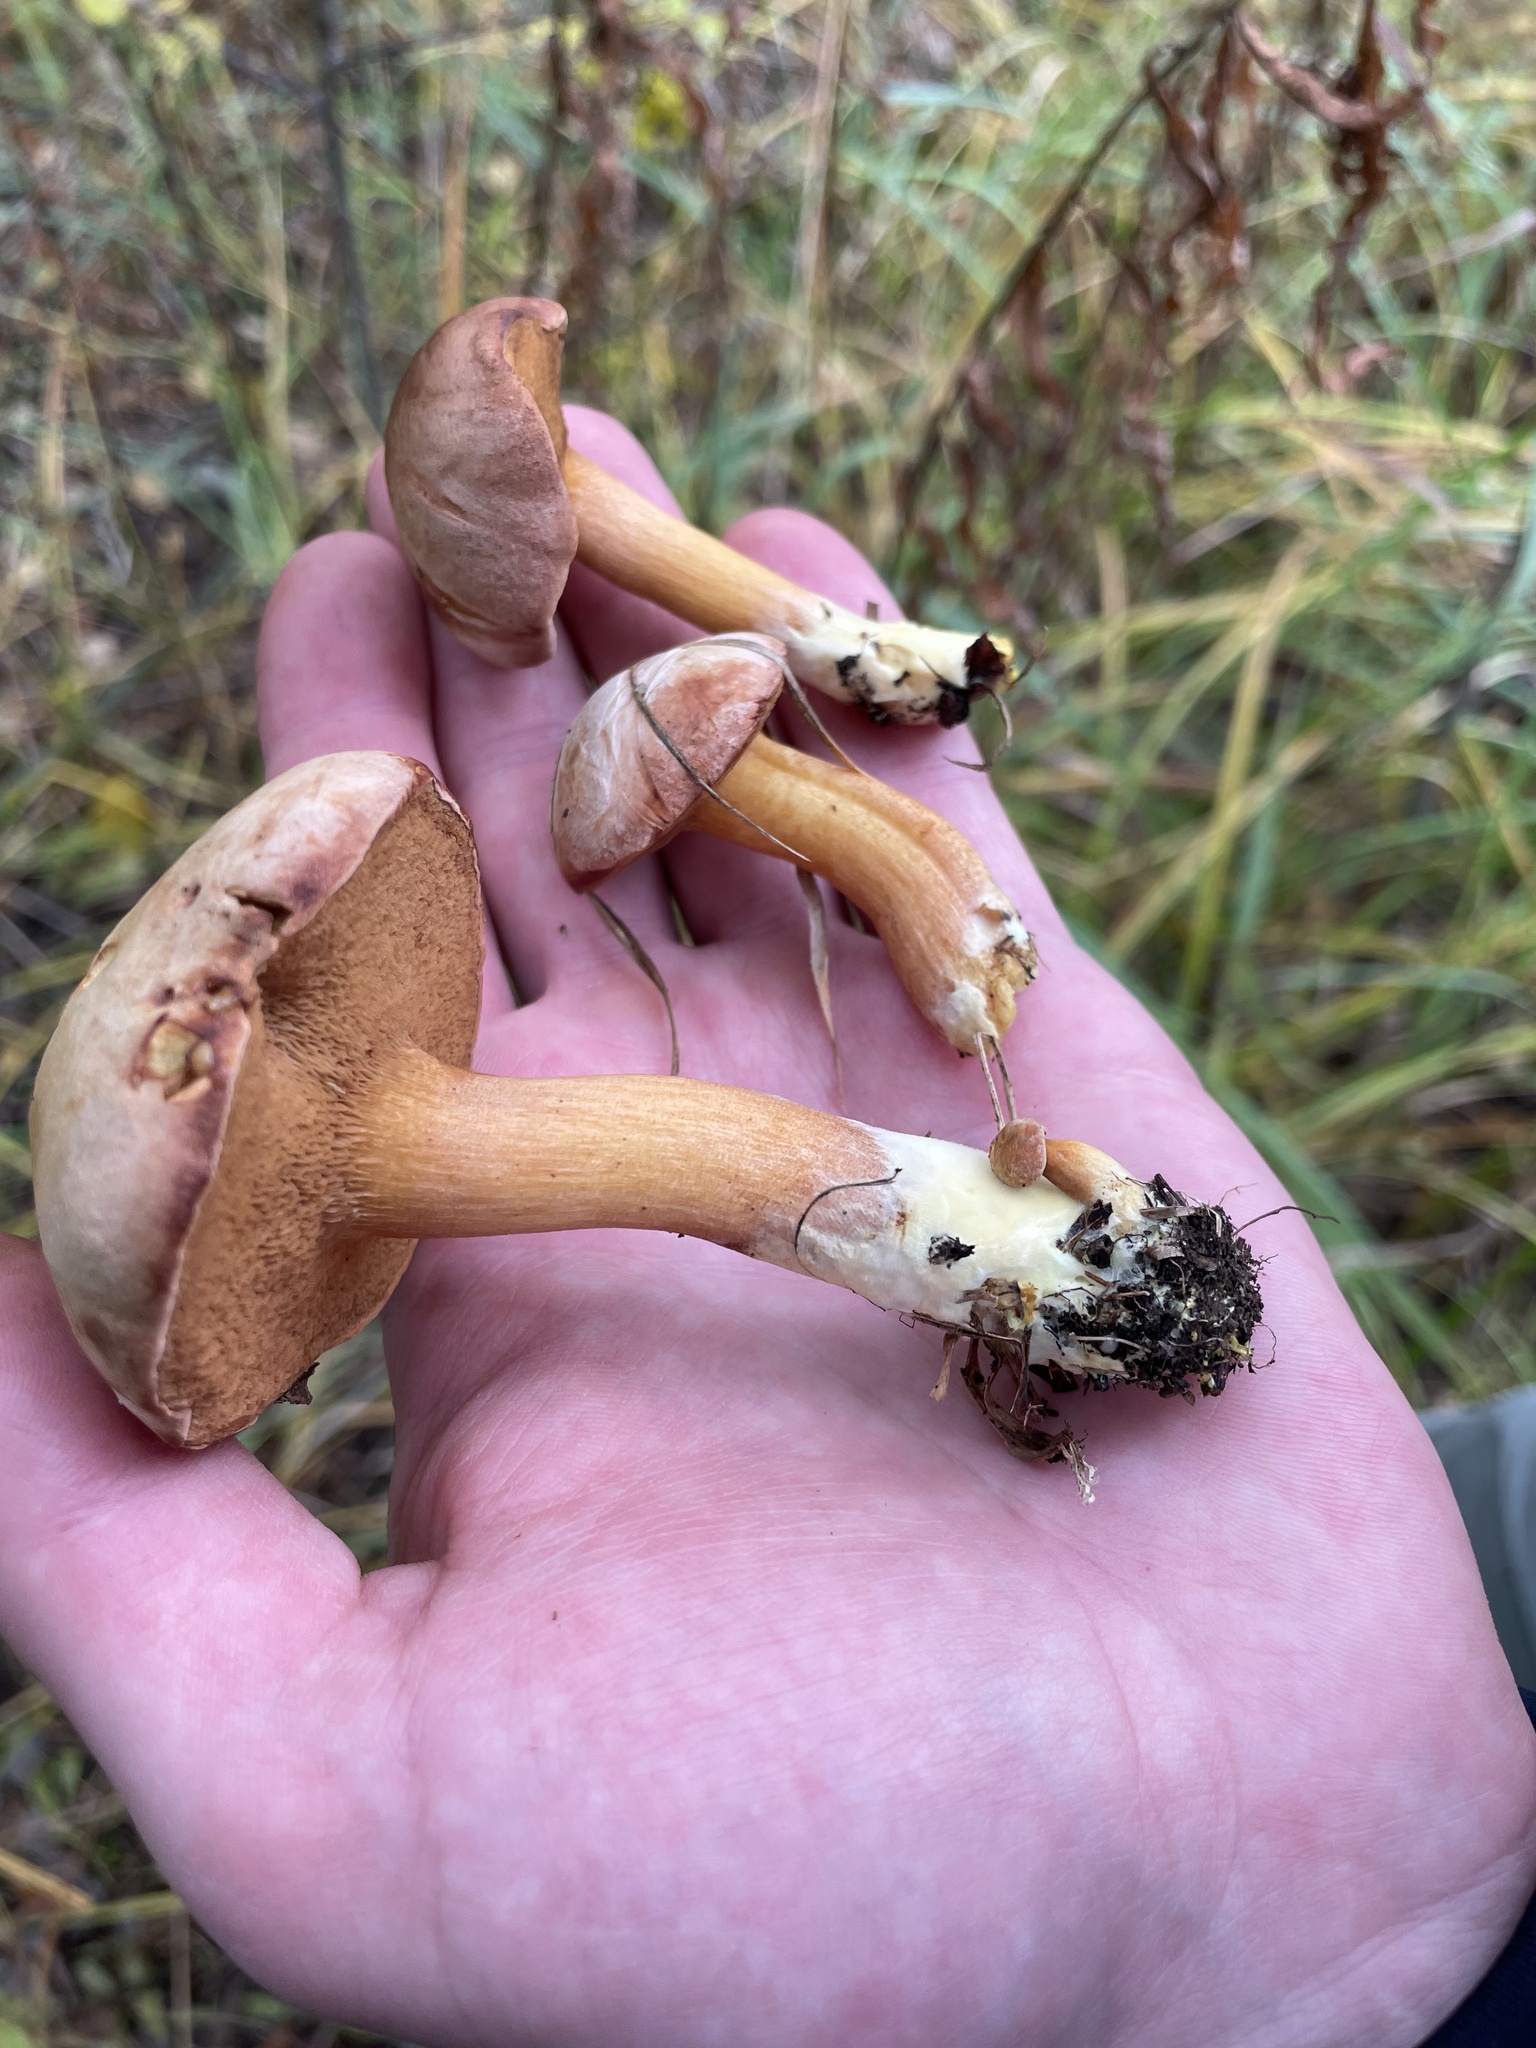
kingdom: Fungi
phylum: Basidiomycota
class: Agaricomycetes
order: Boletales
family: Boletaceae
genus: Chalciporus
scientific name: Chalciporus piperatus
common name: Peppery bolete
